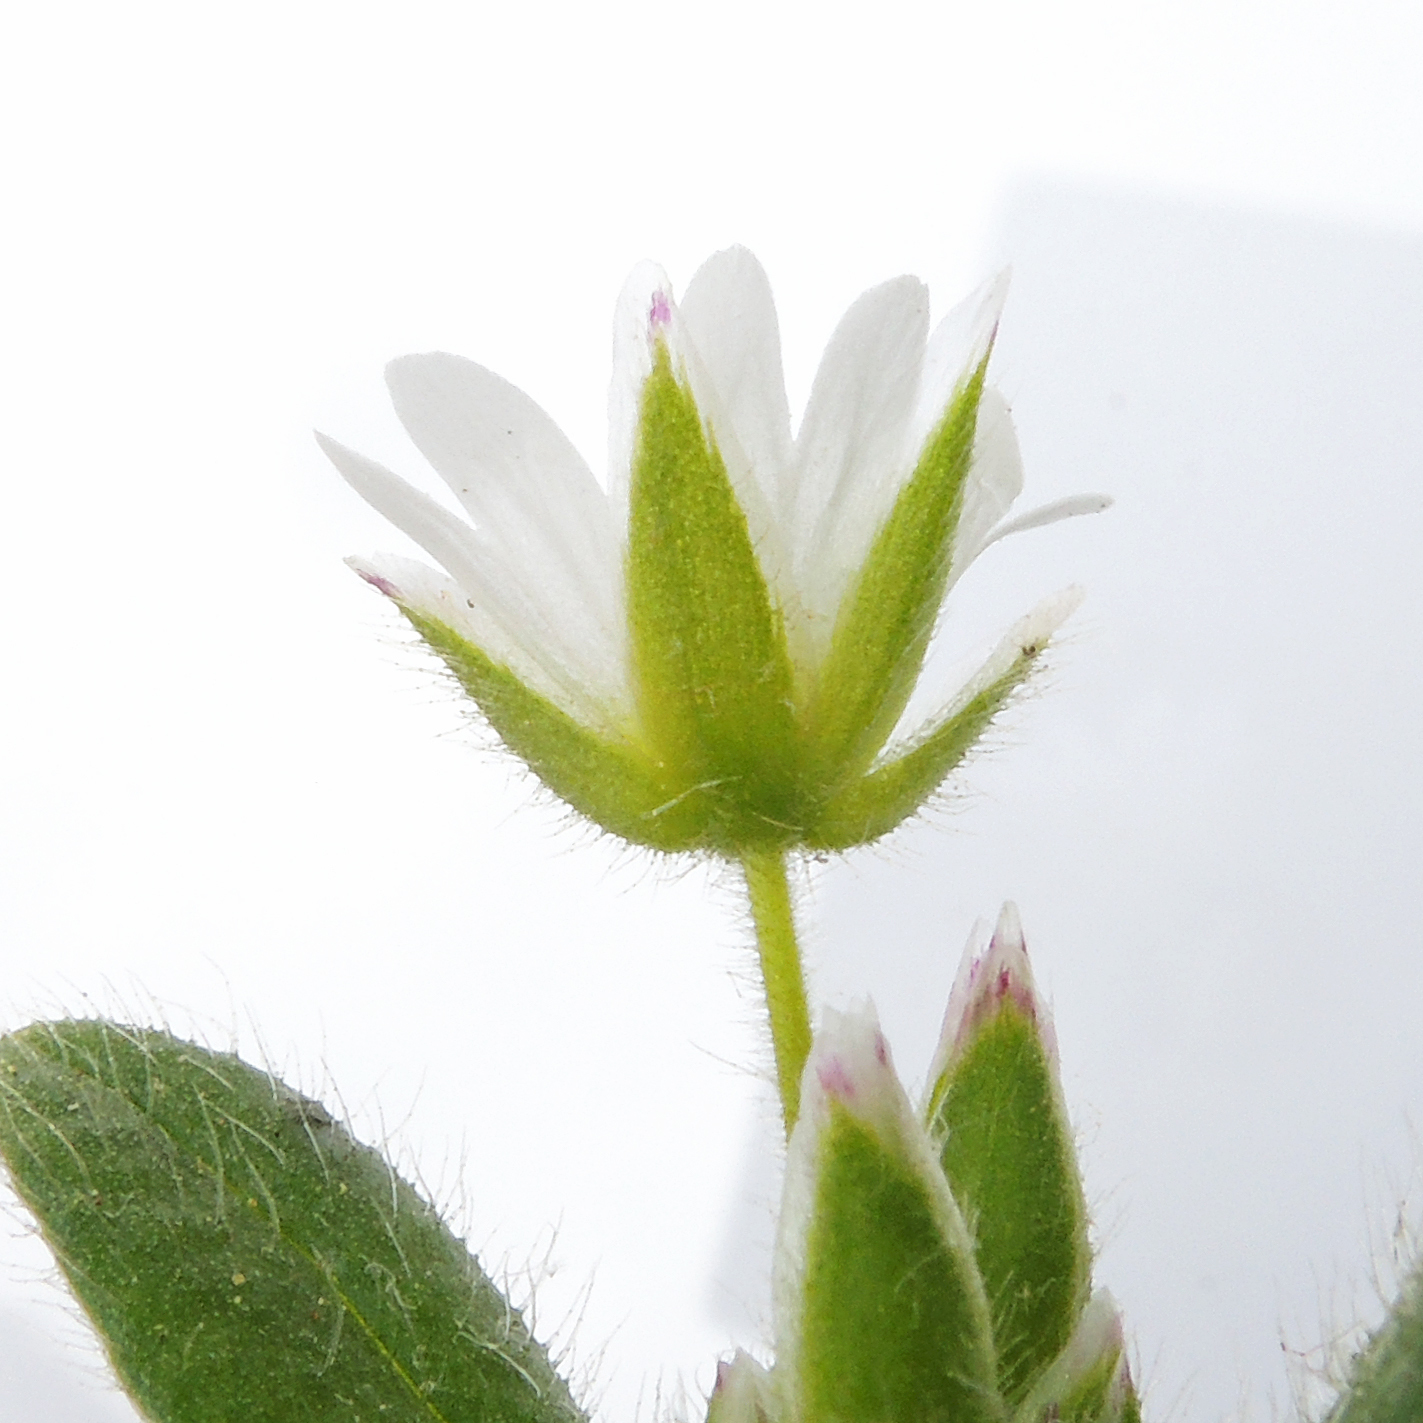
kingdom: Plantae
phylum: Tracheophyta
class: Magnoliopsida
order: Caryophyllales
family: Caryophyllaceae
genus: Cerastium
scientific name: Cerastium fontanum
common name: Common mouse-ear
